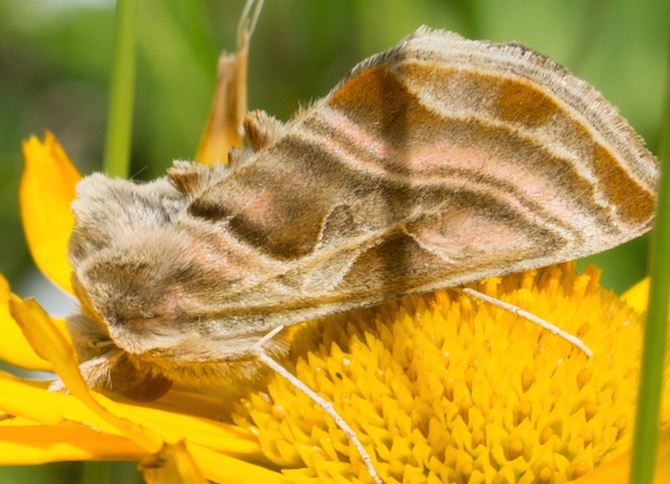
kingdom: Animalia
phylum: Arthropoda
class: Insecta
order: Lepidoptera
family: Noctuidae
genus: Euchalcia
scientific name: Euchalcia variabilis
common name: Purple-shaded gem
